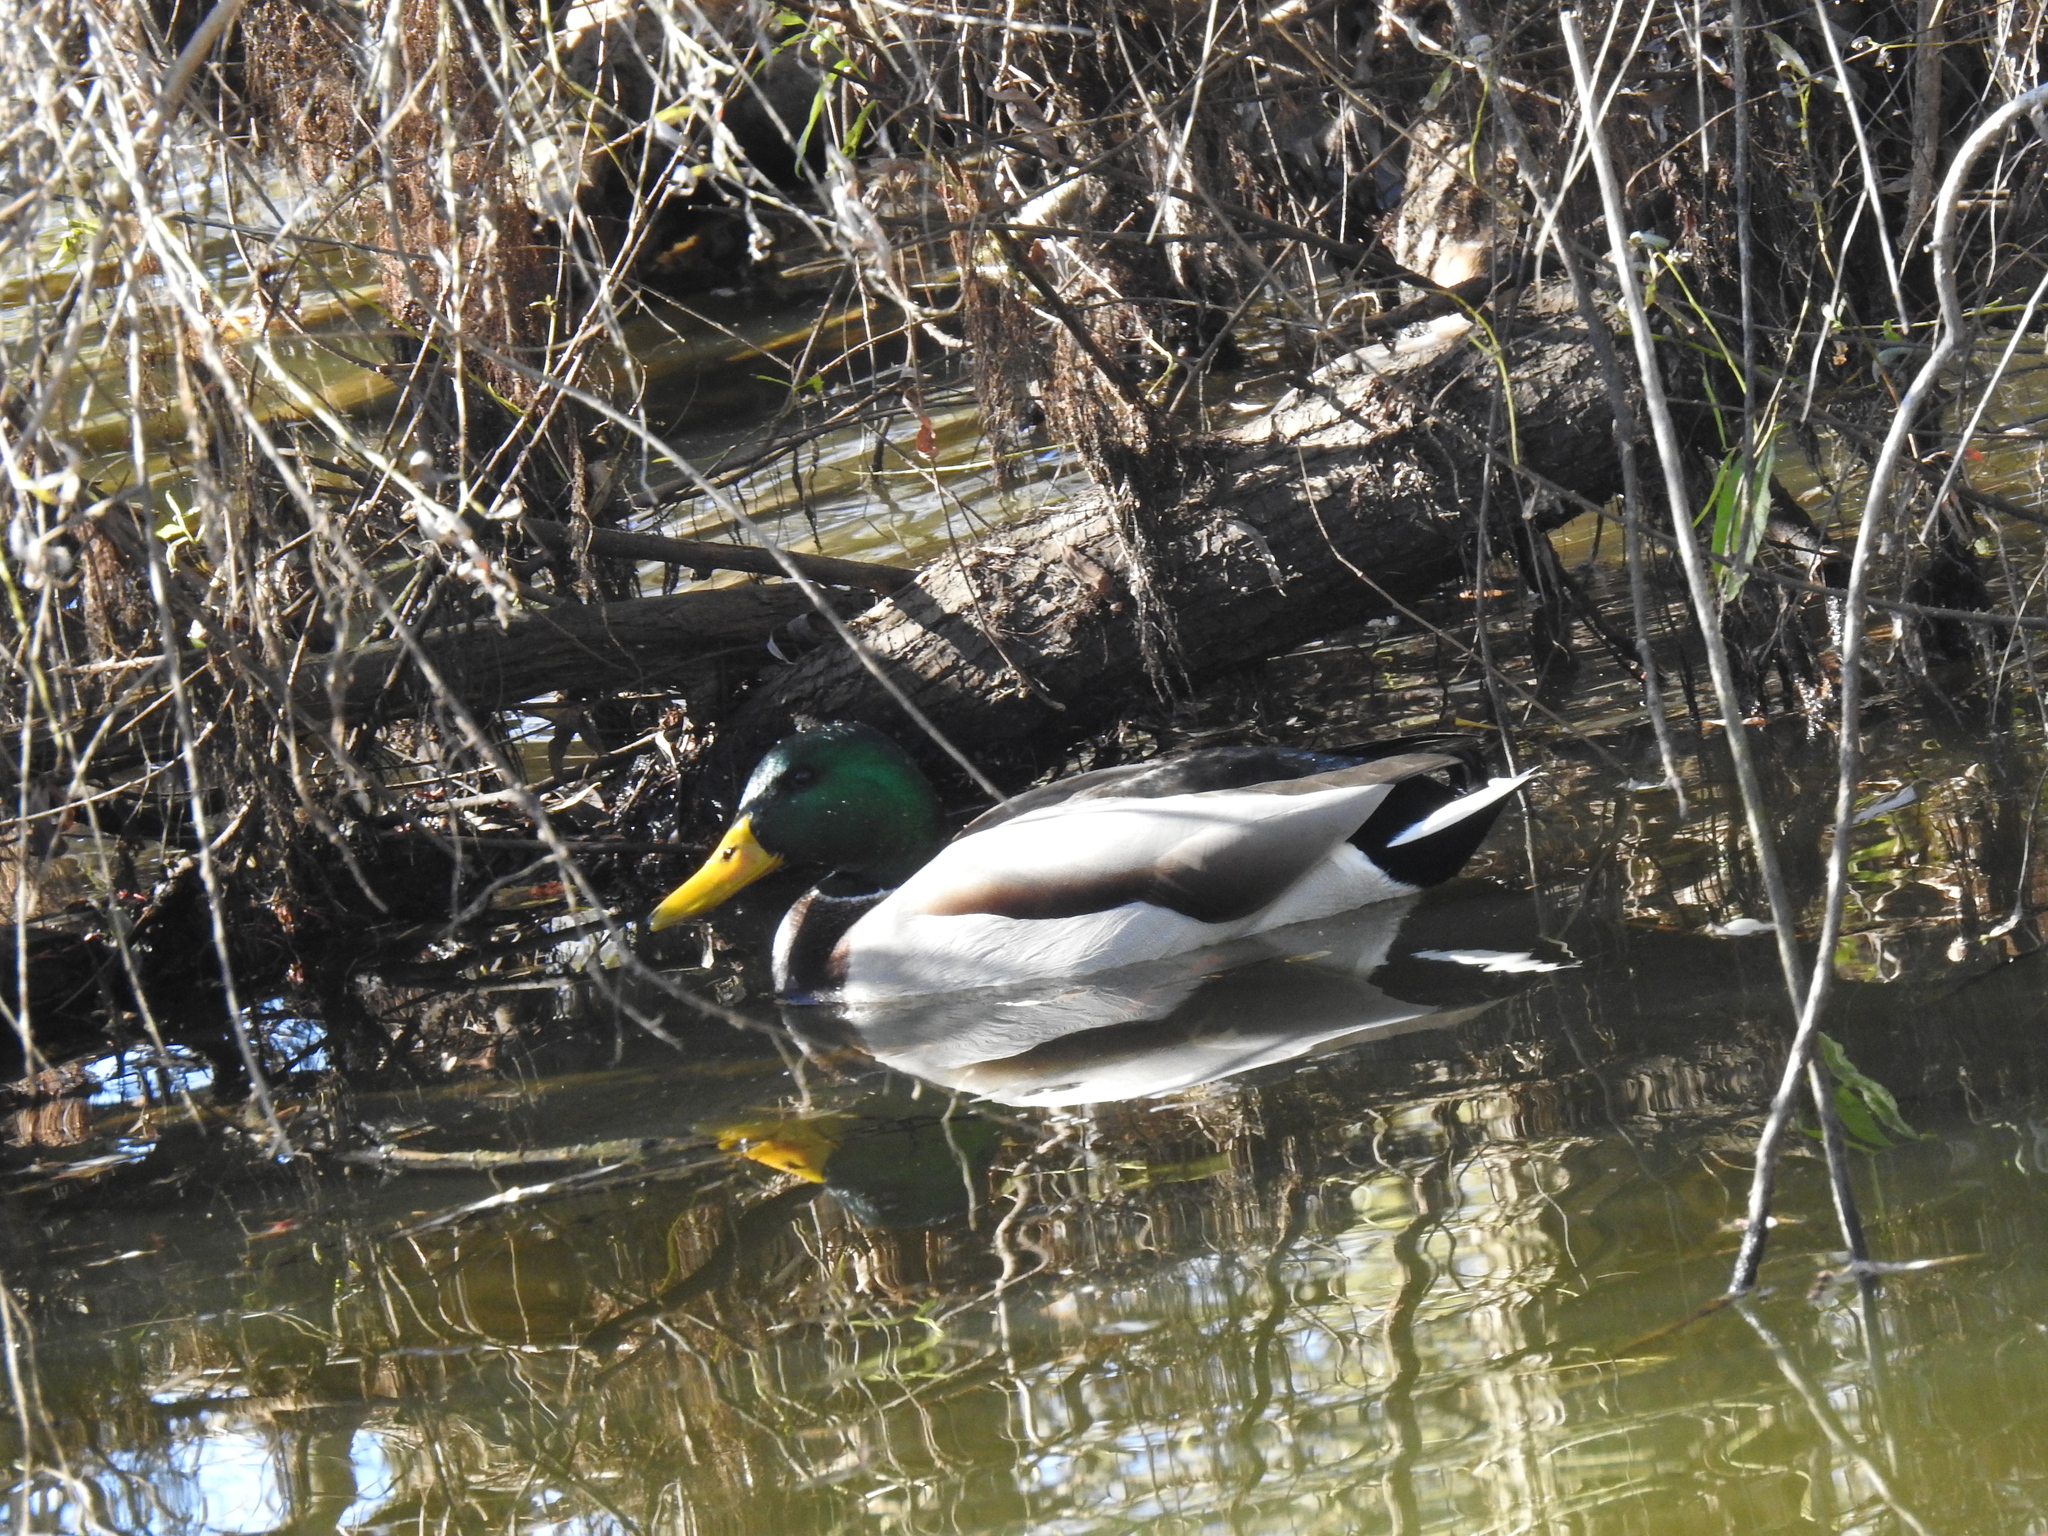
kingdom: Animalia
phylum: Chordata
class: Aves
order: Anseriformes
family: Anatidae
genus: Anas
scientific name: Anas platyrhynchos
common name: Mallard
